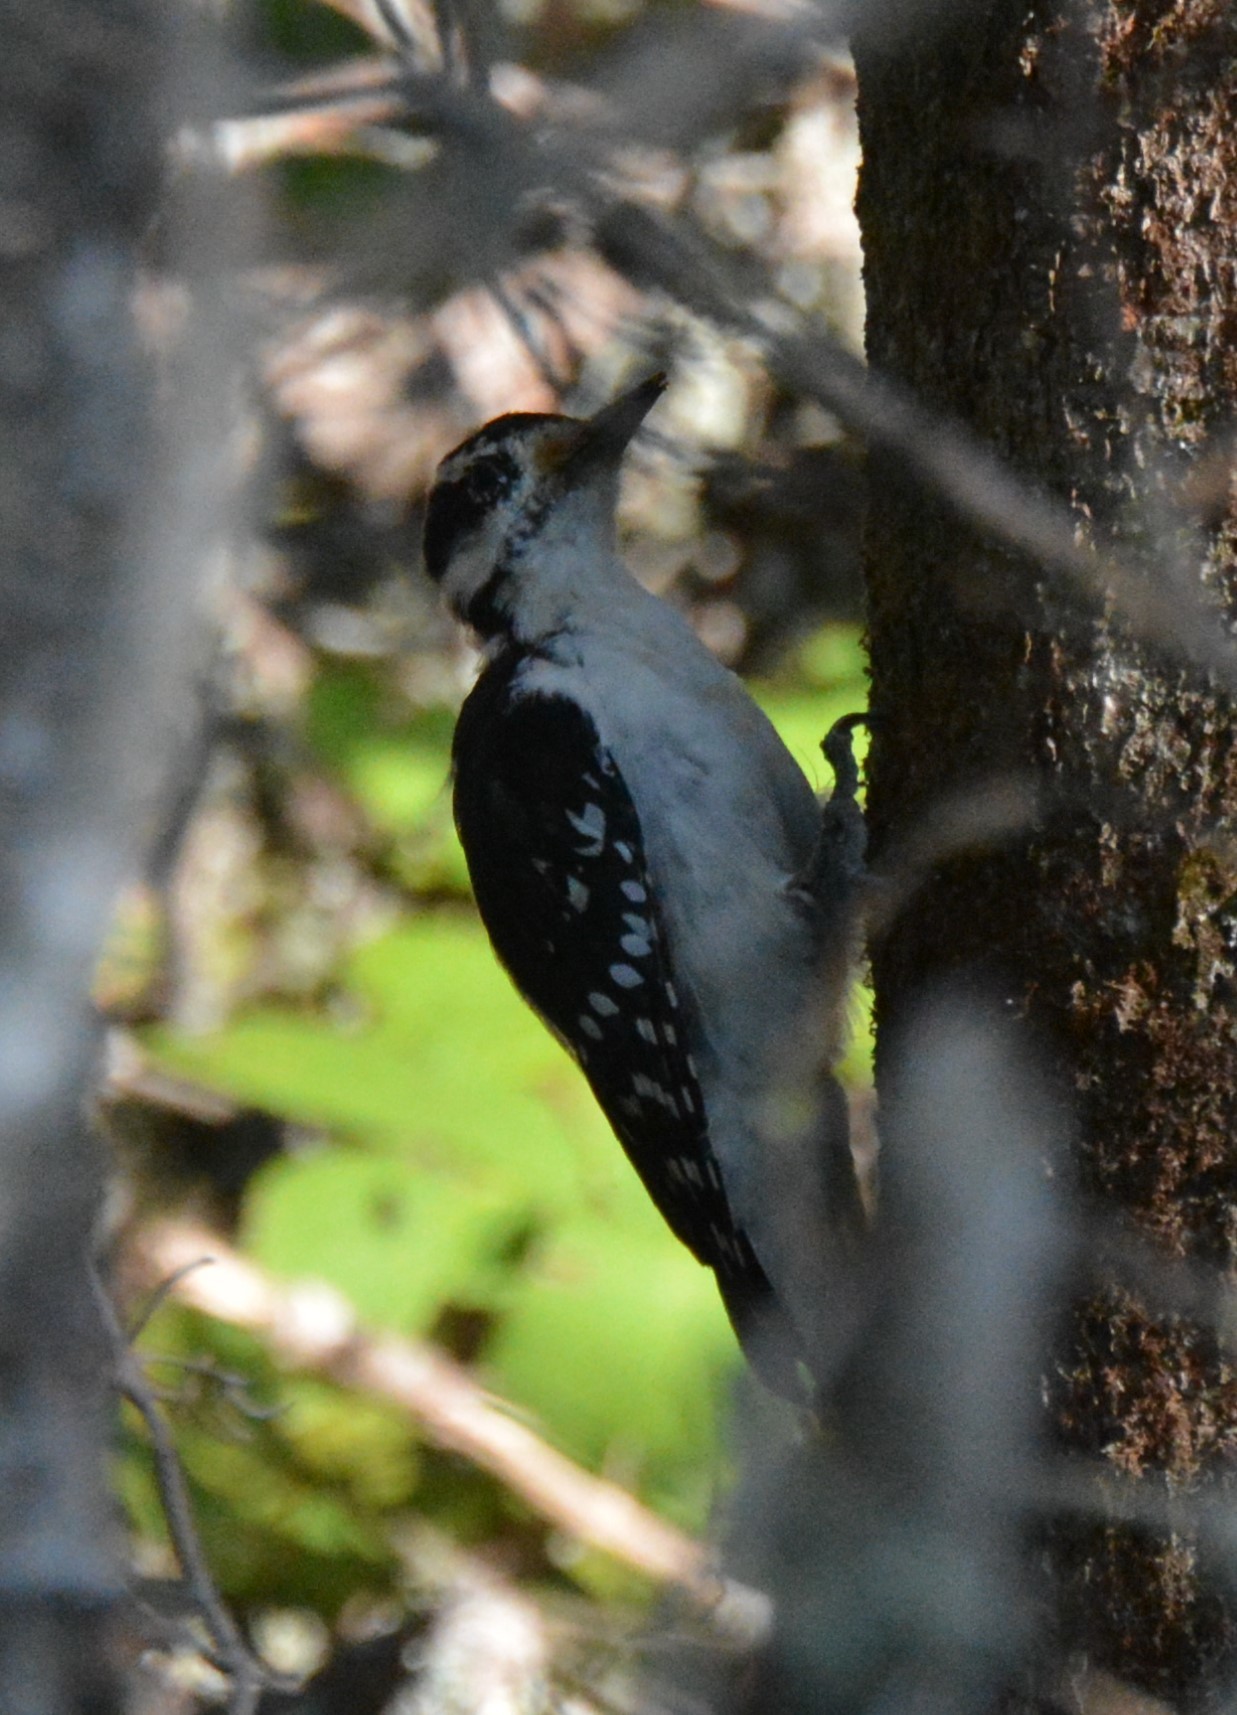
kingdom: Animalia
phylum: Chordata
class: Aves
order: Piciformes
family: Picidae
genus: Leuconotopicus
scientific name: Leuconotopicus villosus
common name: Hairy woodpecker
